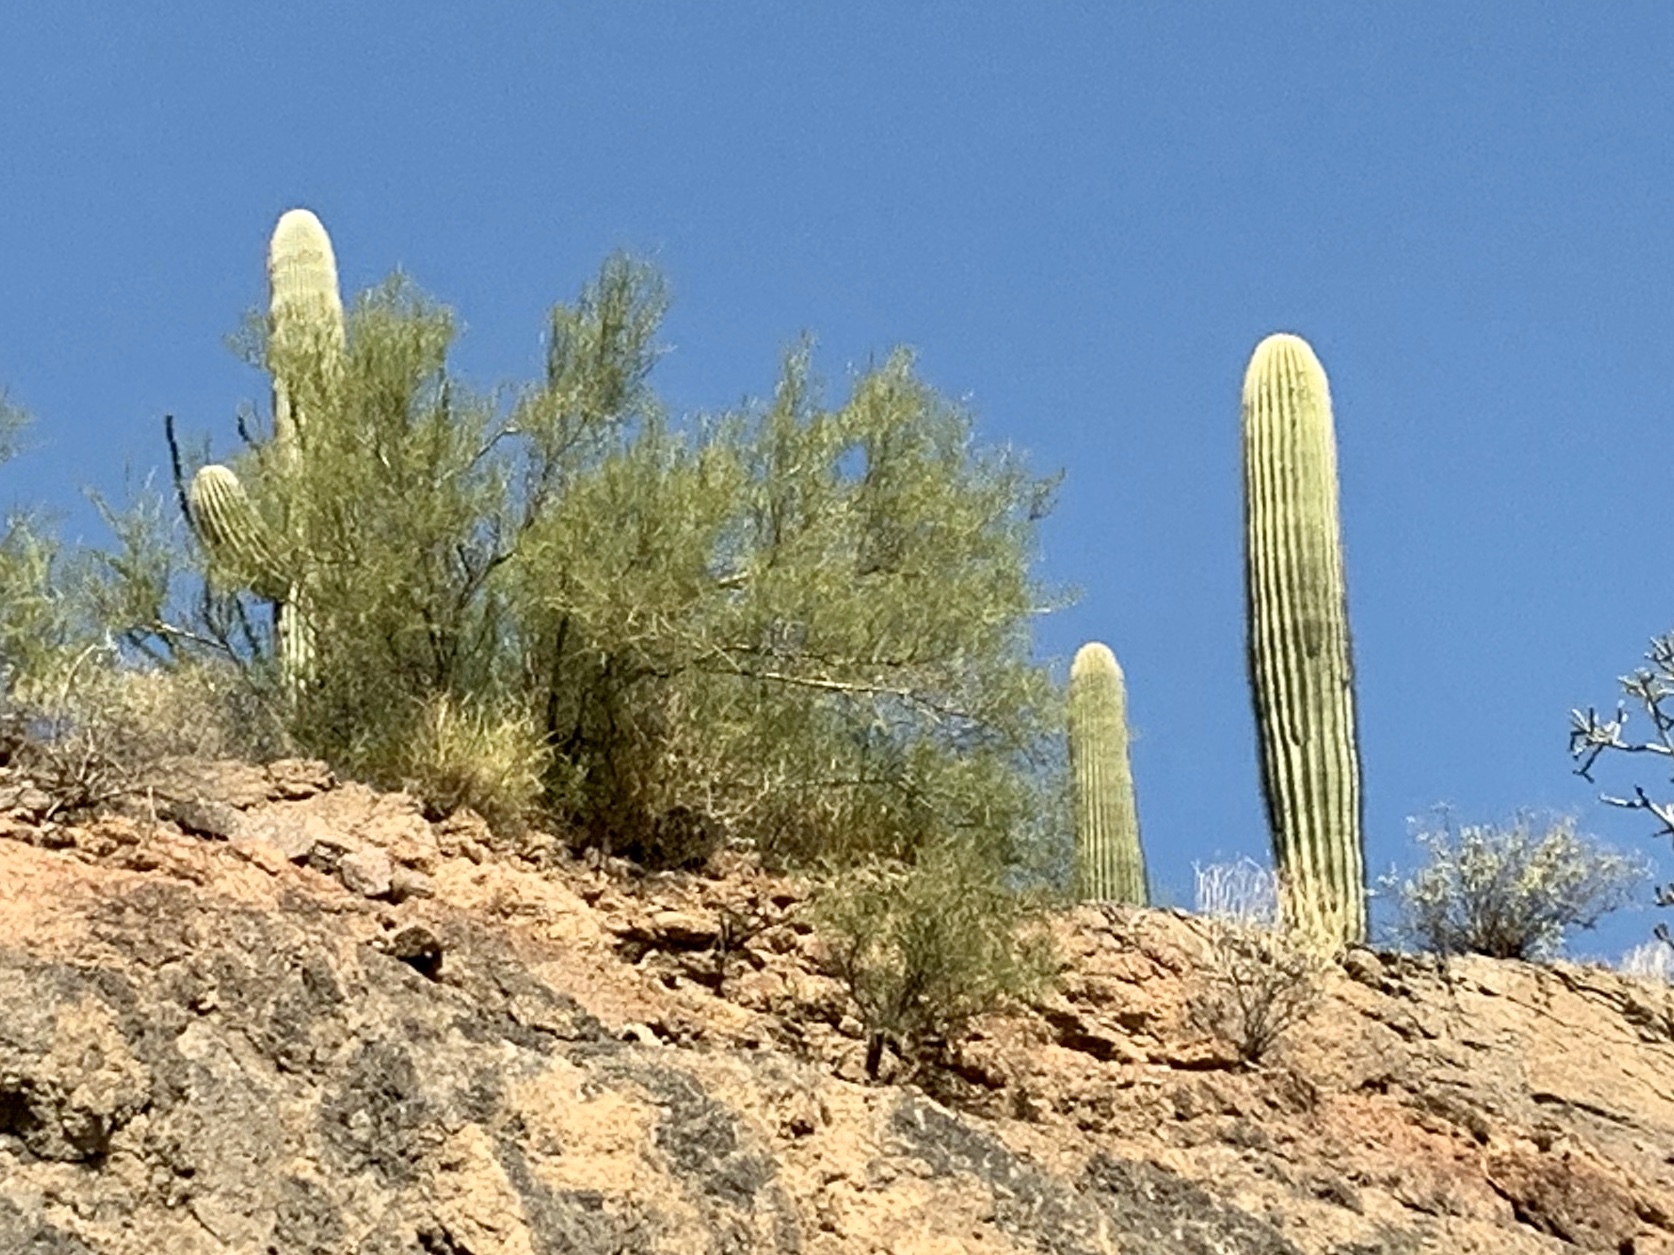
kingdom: Plantae
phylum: Tracheophyta
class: Magnoliopsida
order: Caryophyllales
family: Cactaceae
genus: Carnegiea
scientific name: Carnegiea gigantea
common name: Saguaro
